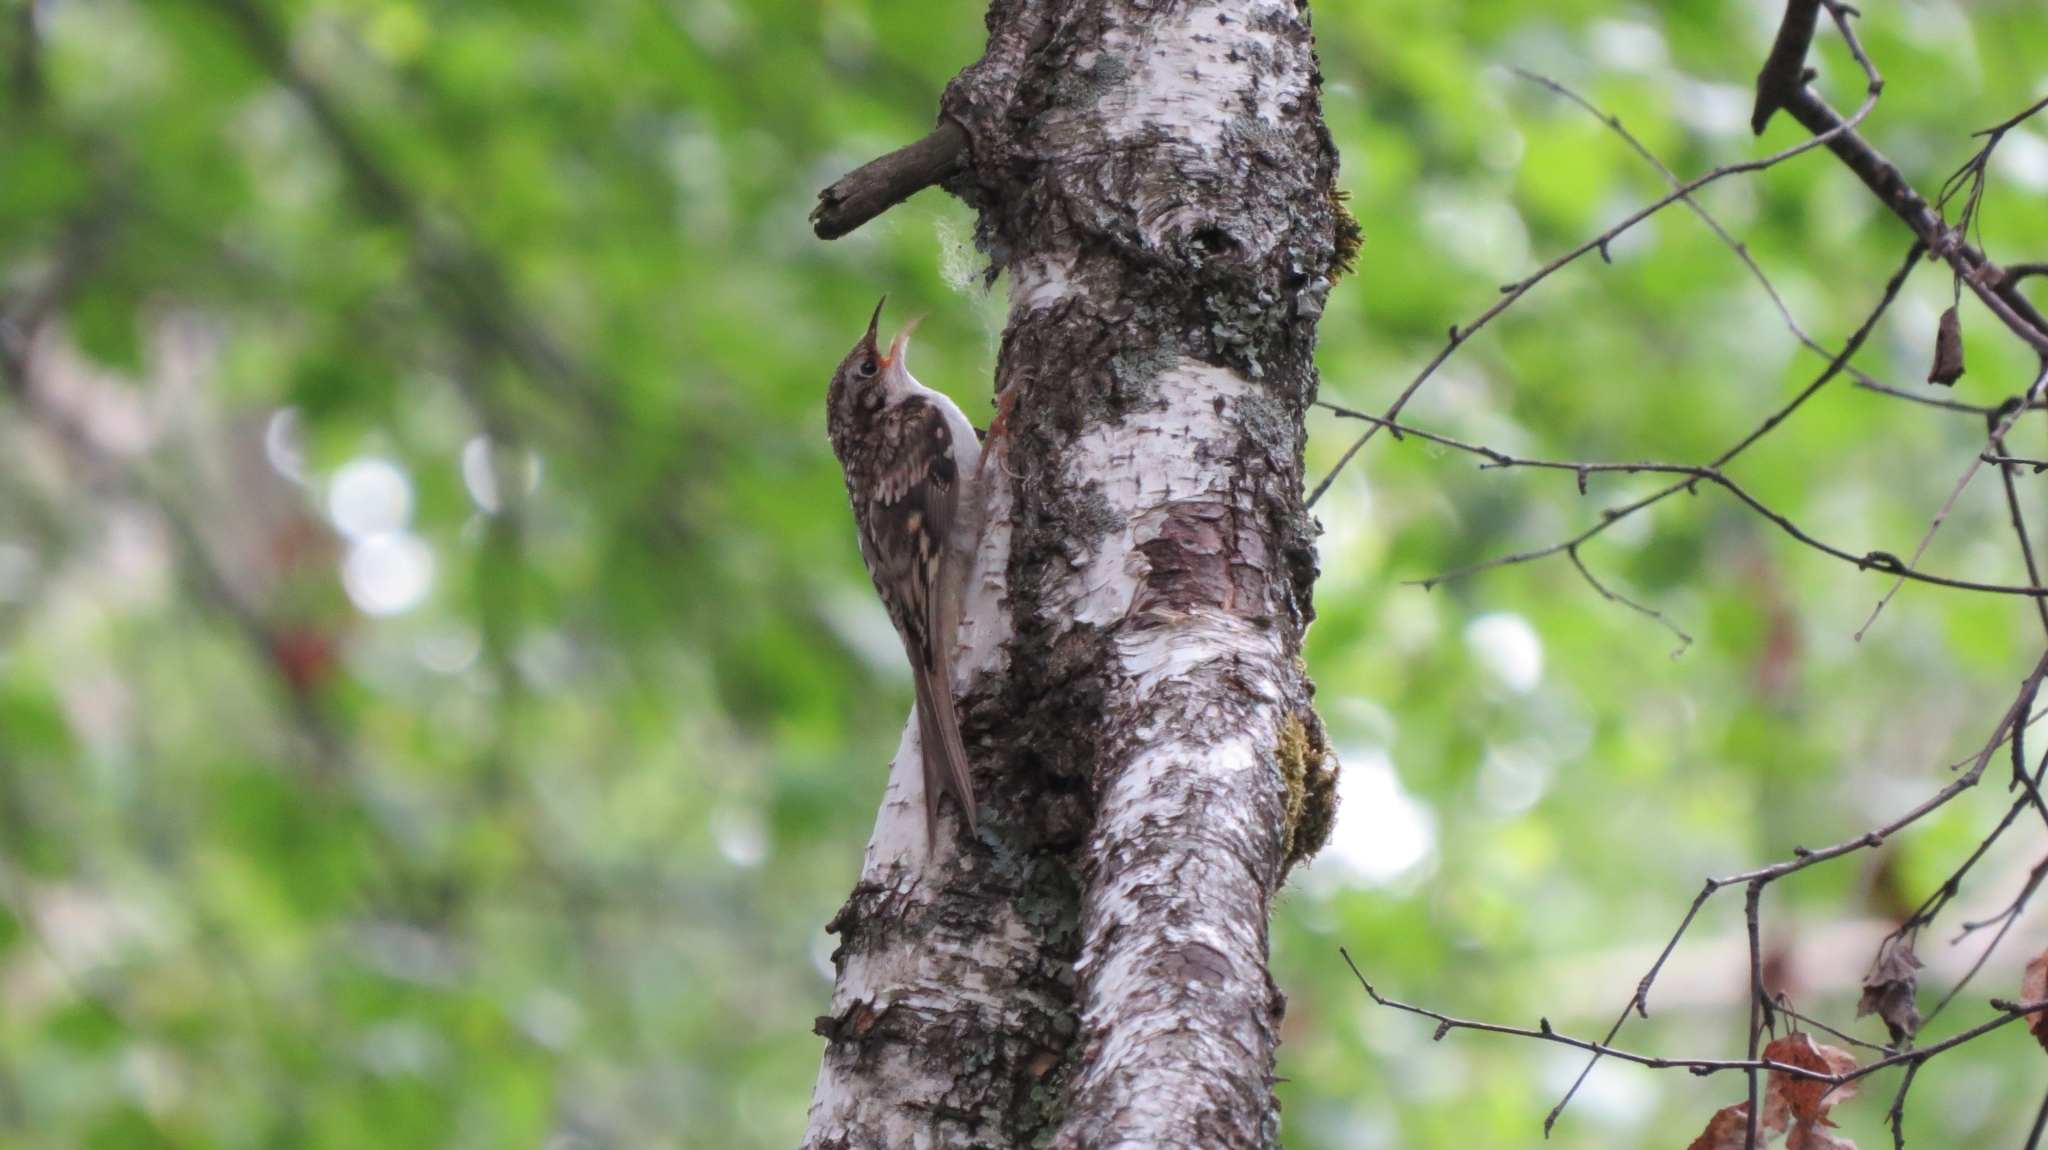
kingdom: Animalia
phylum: Chordata
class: Aves
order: Passeriformes
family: Certhiidae
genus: Certhia
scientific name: Certhia familiaris
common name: Eurasian treecreeper
